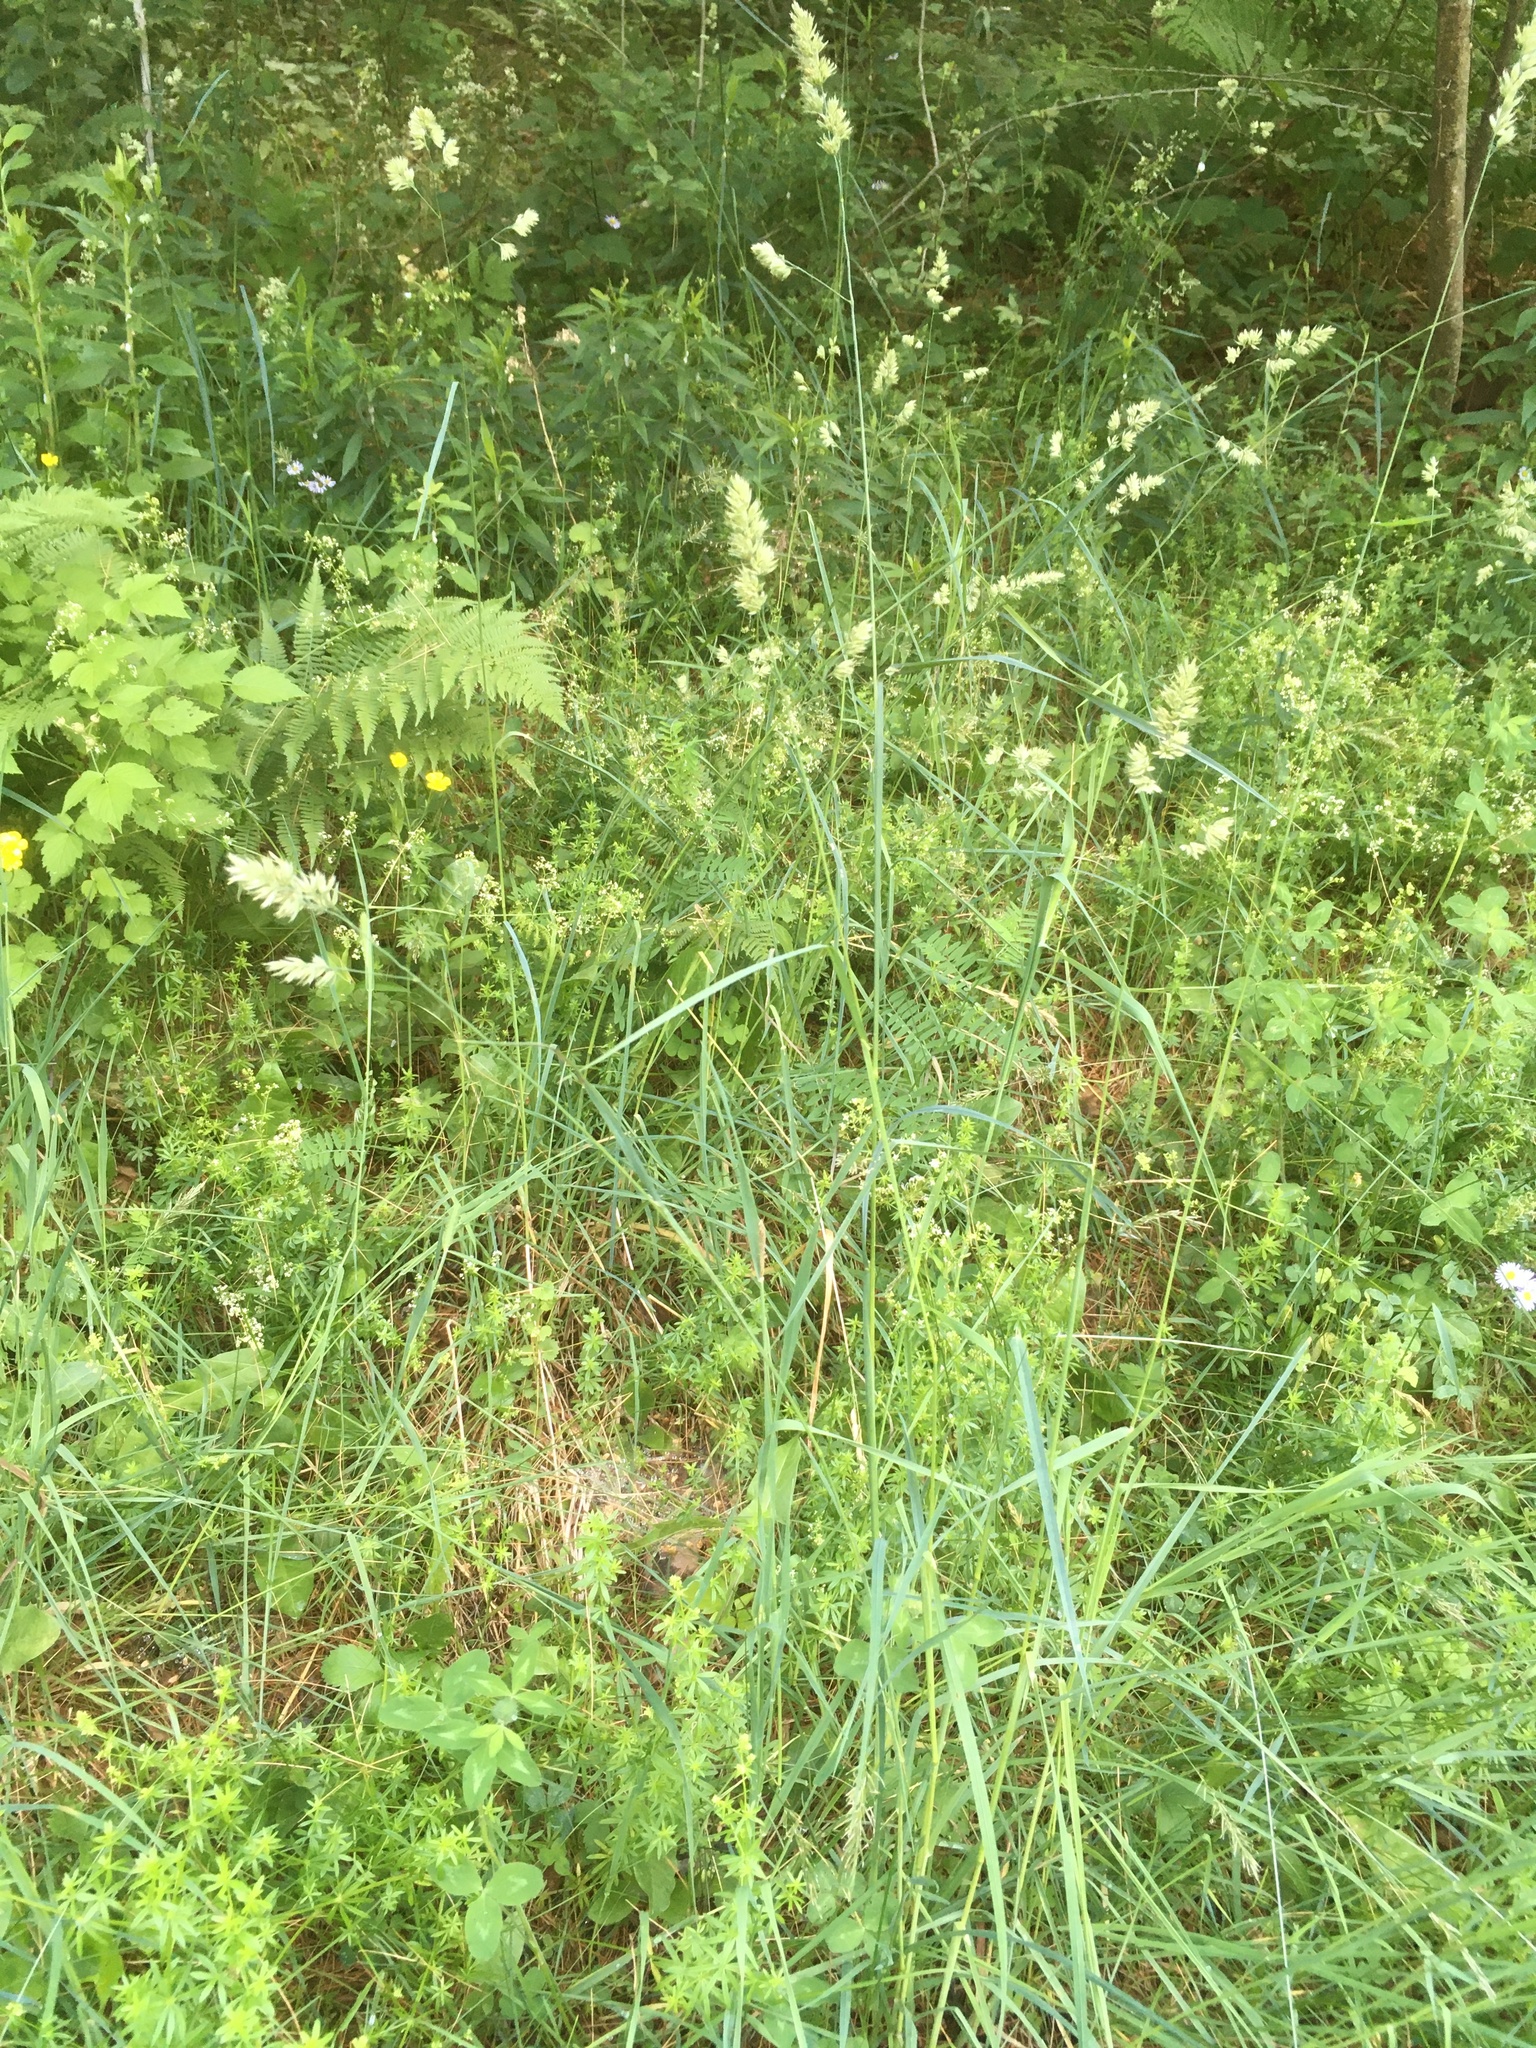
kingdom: Plantae
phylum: Tracheophyta
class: Liliopsida
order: Poales
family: Poaceae
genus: Dactylis
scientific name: Dactylis glomerata
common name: Orchardgrass
